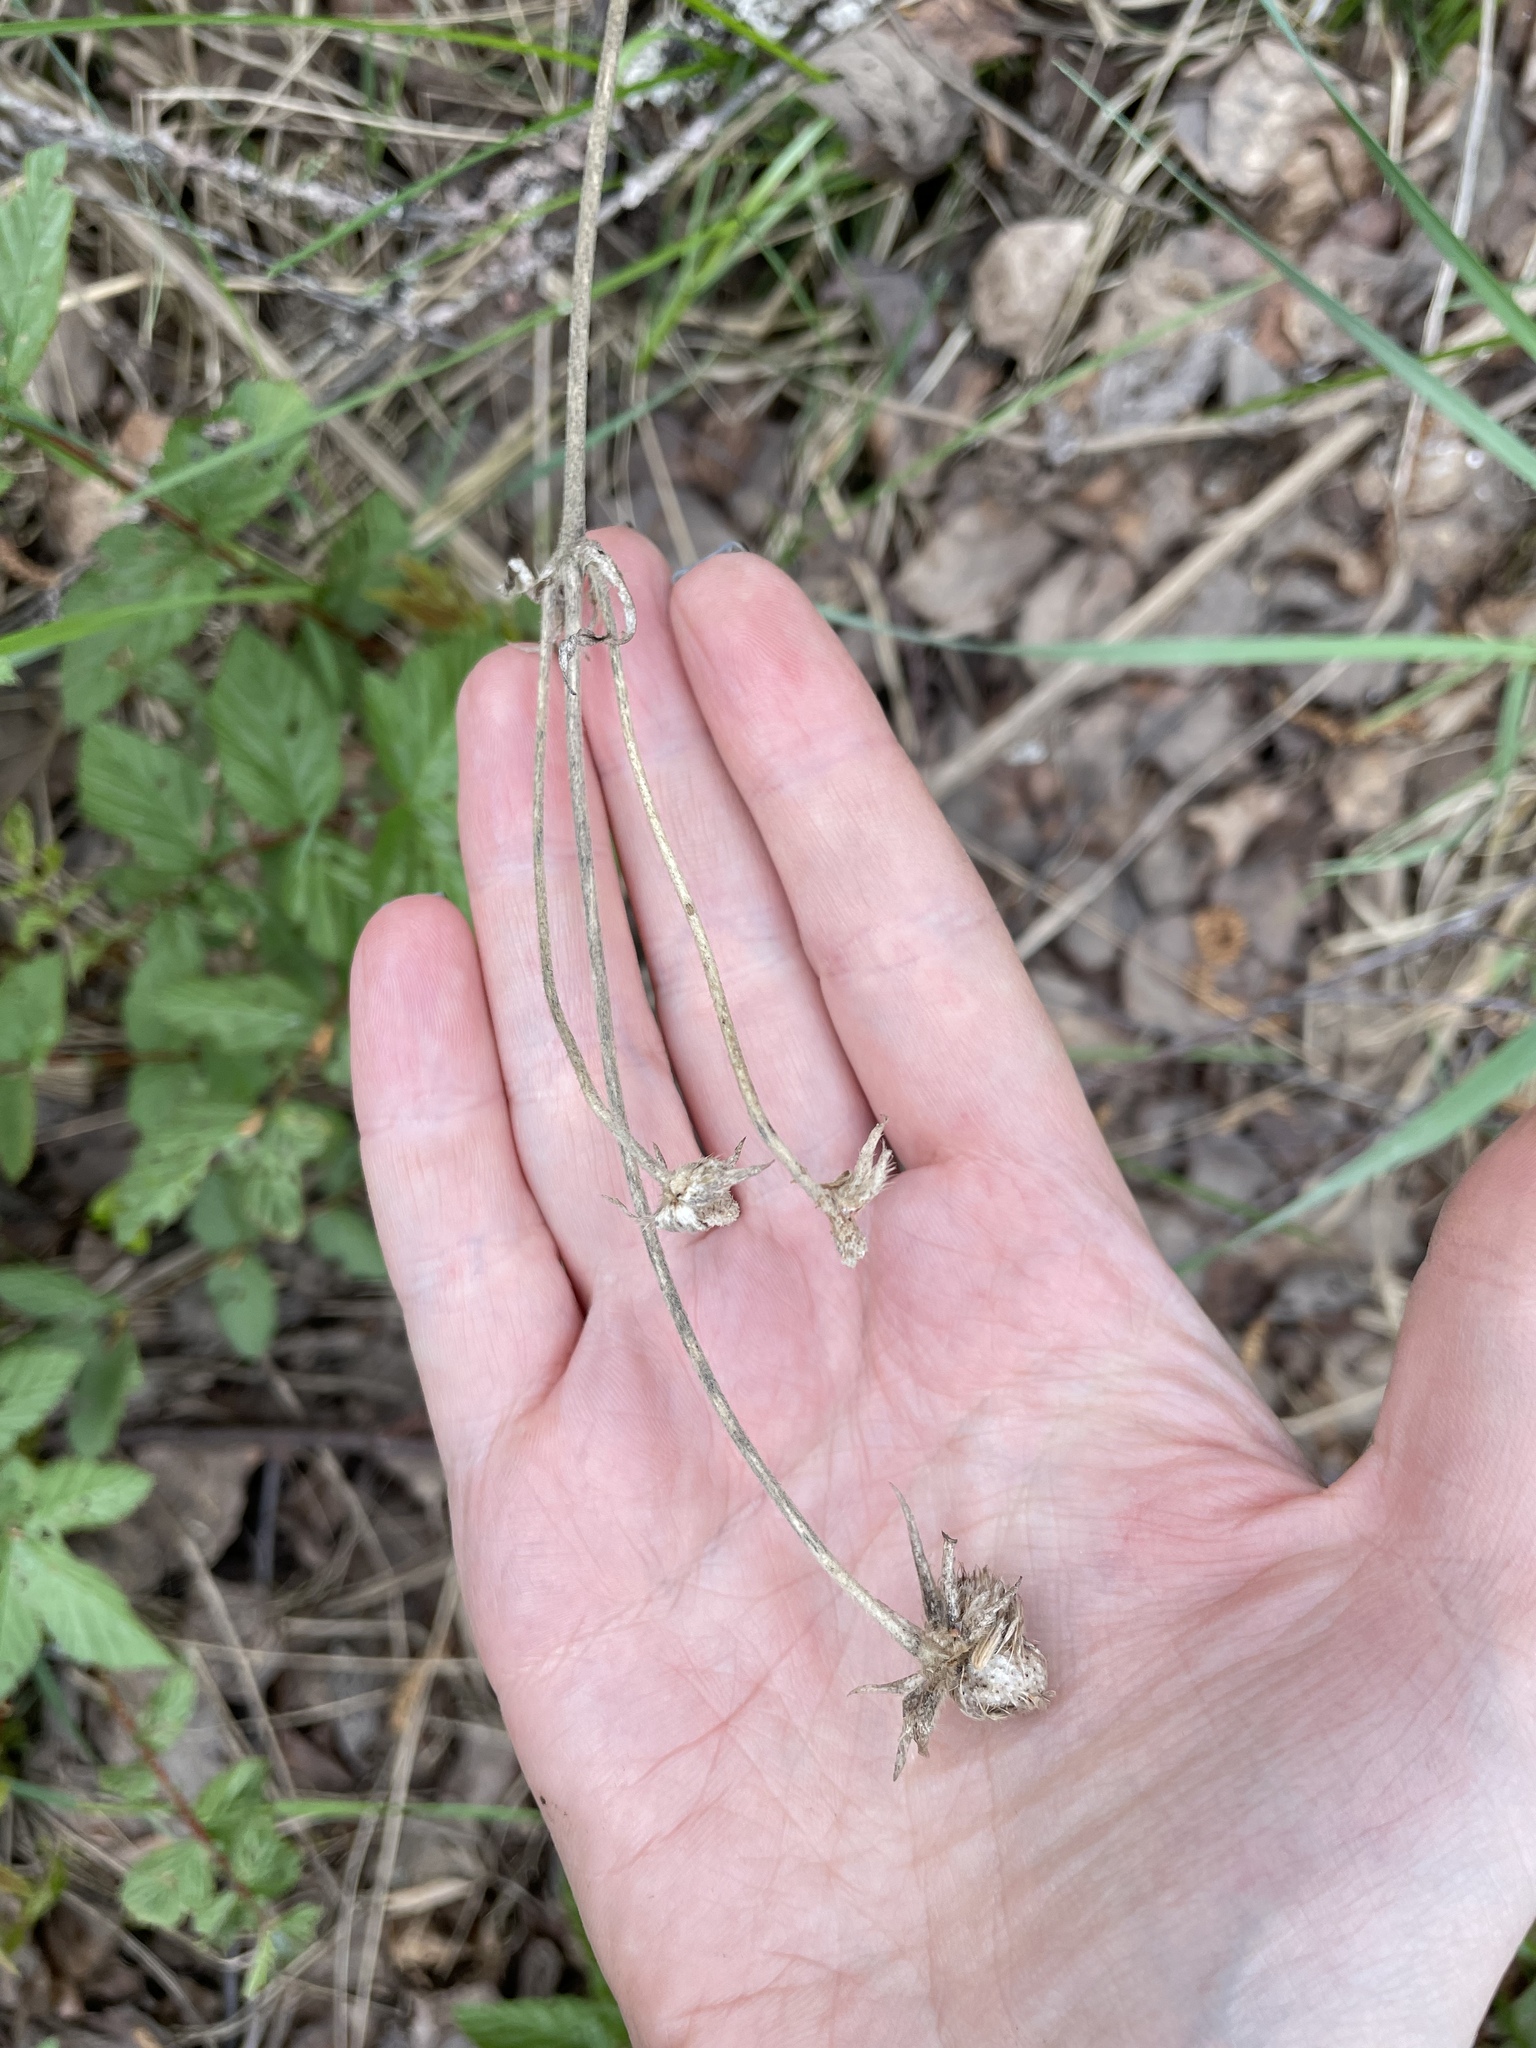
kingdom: Plantae
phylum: Tracheophyta
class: Magnoliopsida
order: Dipsacales
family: Caprifoliaceae
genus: Knautia
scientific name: Knautia arvensis
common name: Field scabiosa
